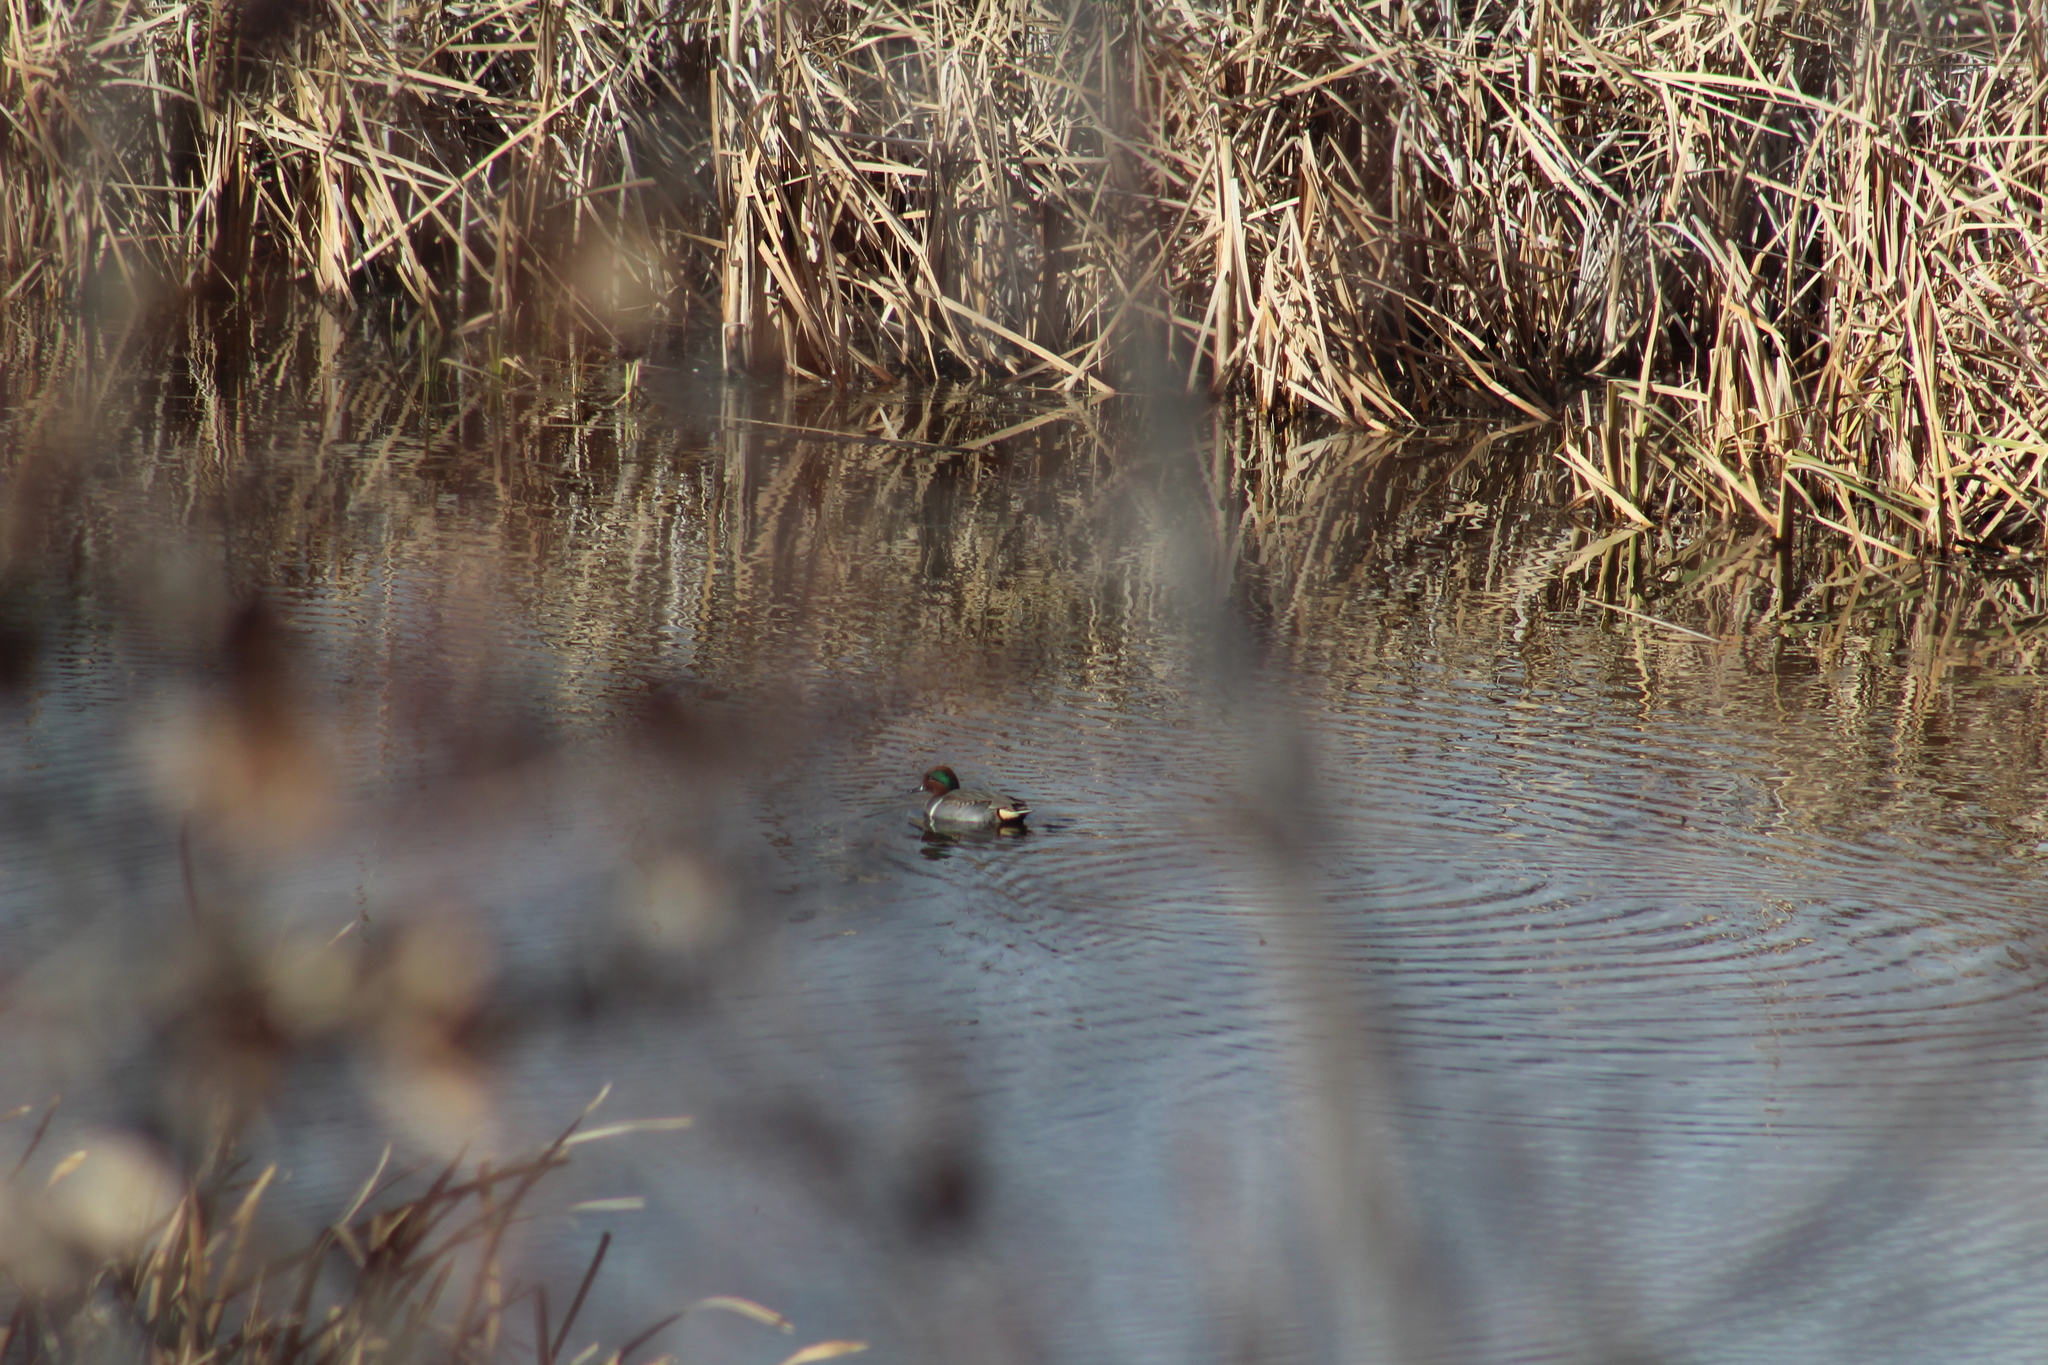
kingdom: Animalia
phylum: Chordata
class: Aves
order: Anseriformes
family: Anatidae
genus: Anas
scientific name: Anas crecca
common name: Eurasian teal
